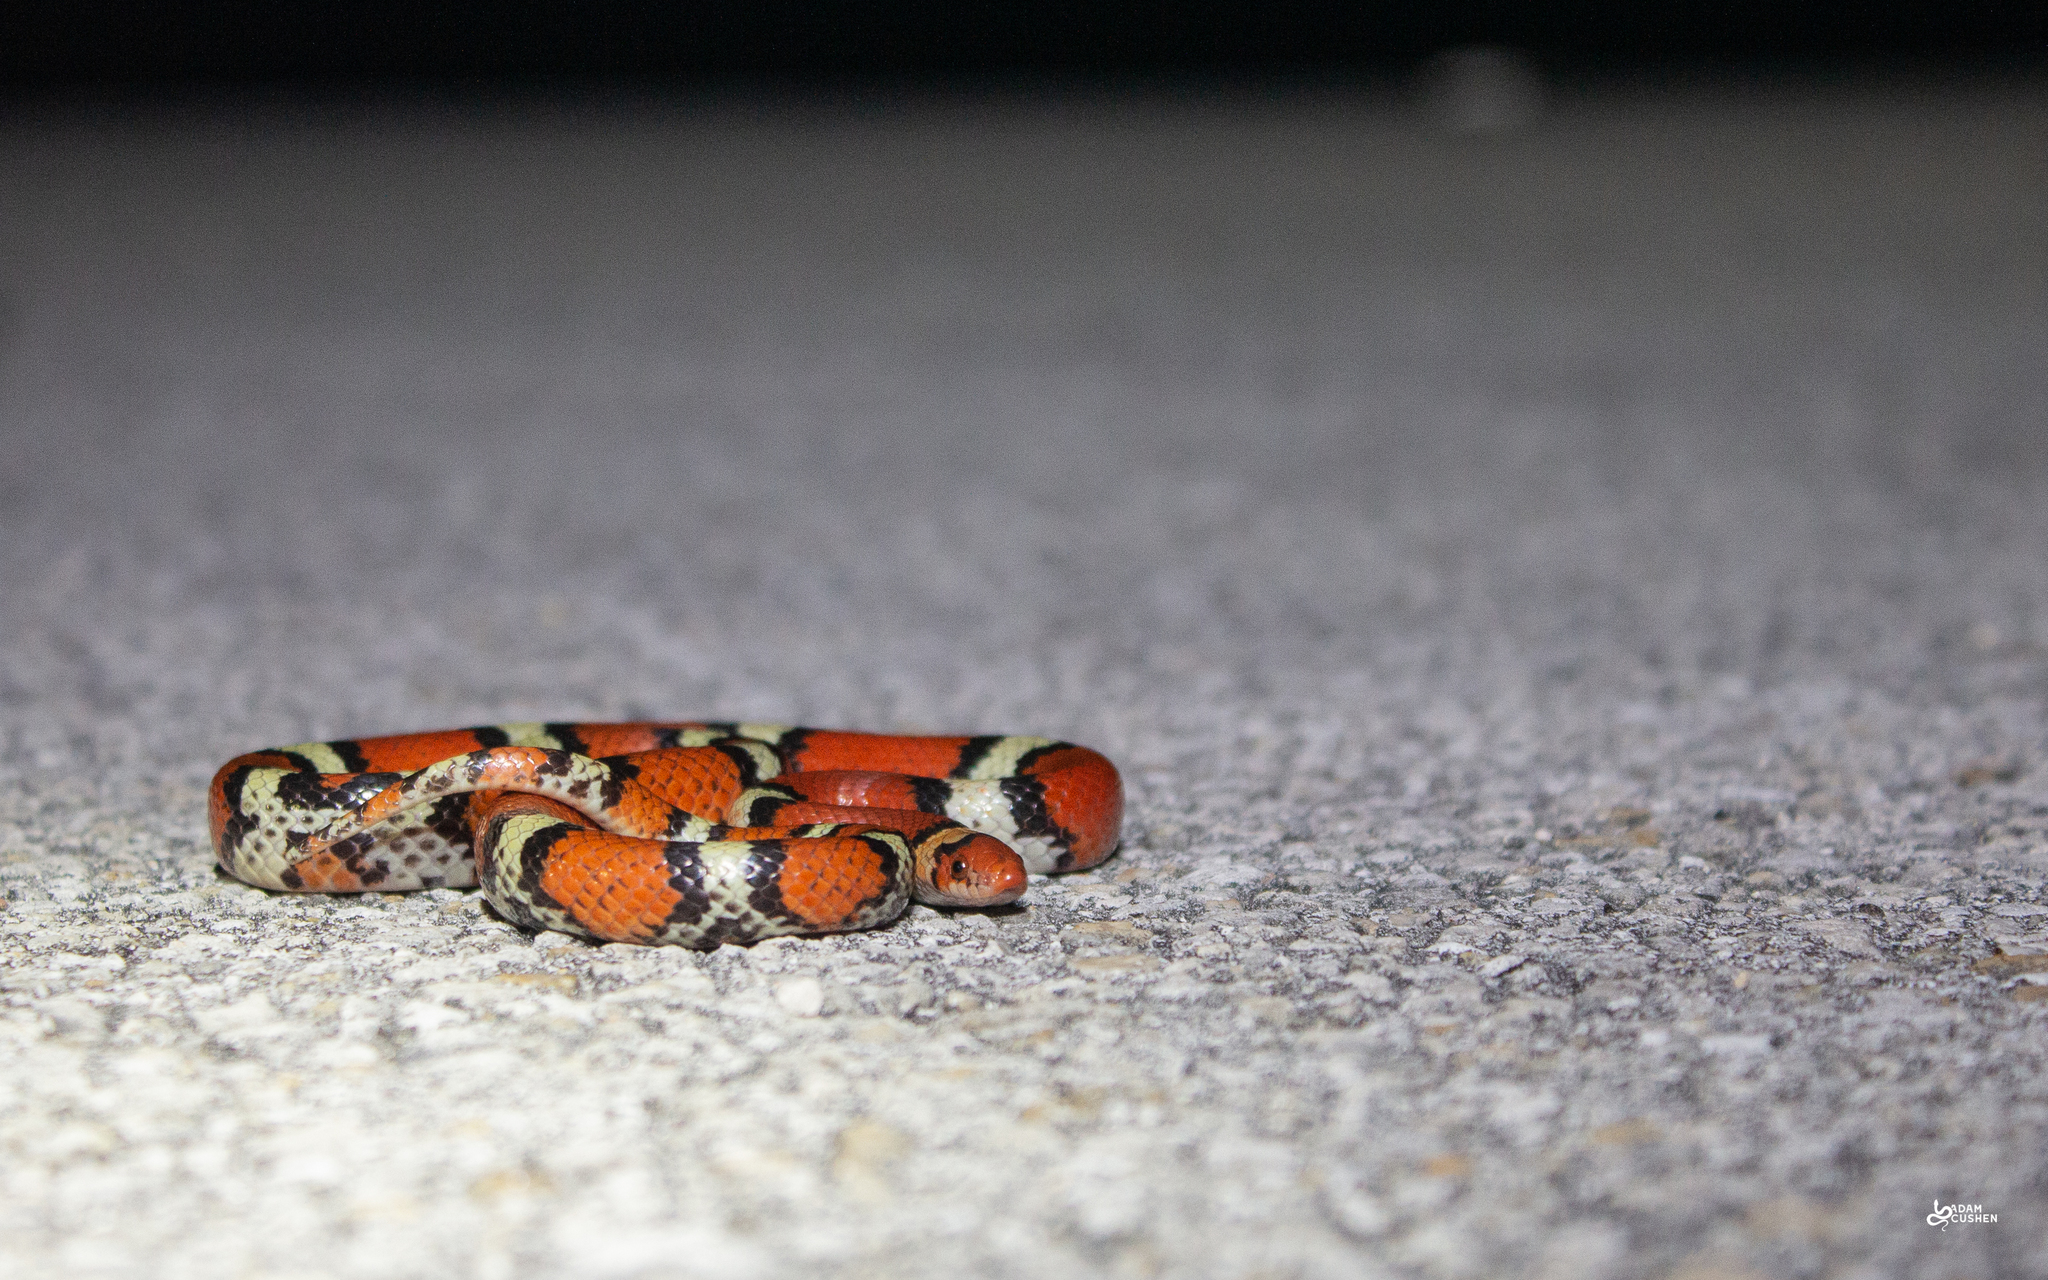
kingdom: Animalia
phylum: Chordata
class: Squamata
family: Colubridae
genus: Cemophora
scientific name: Cemophora coccinea
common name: Scarlet snake
